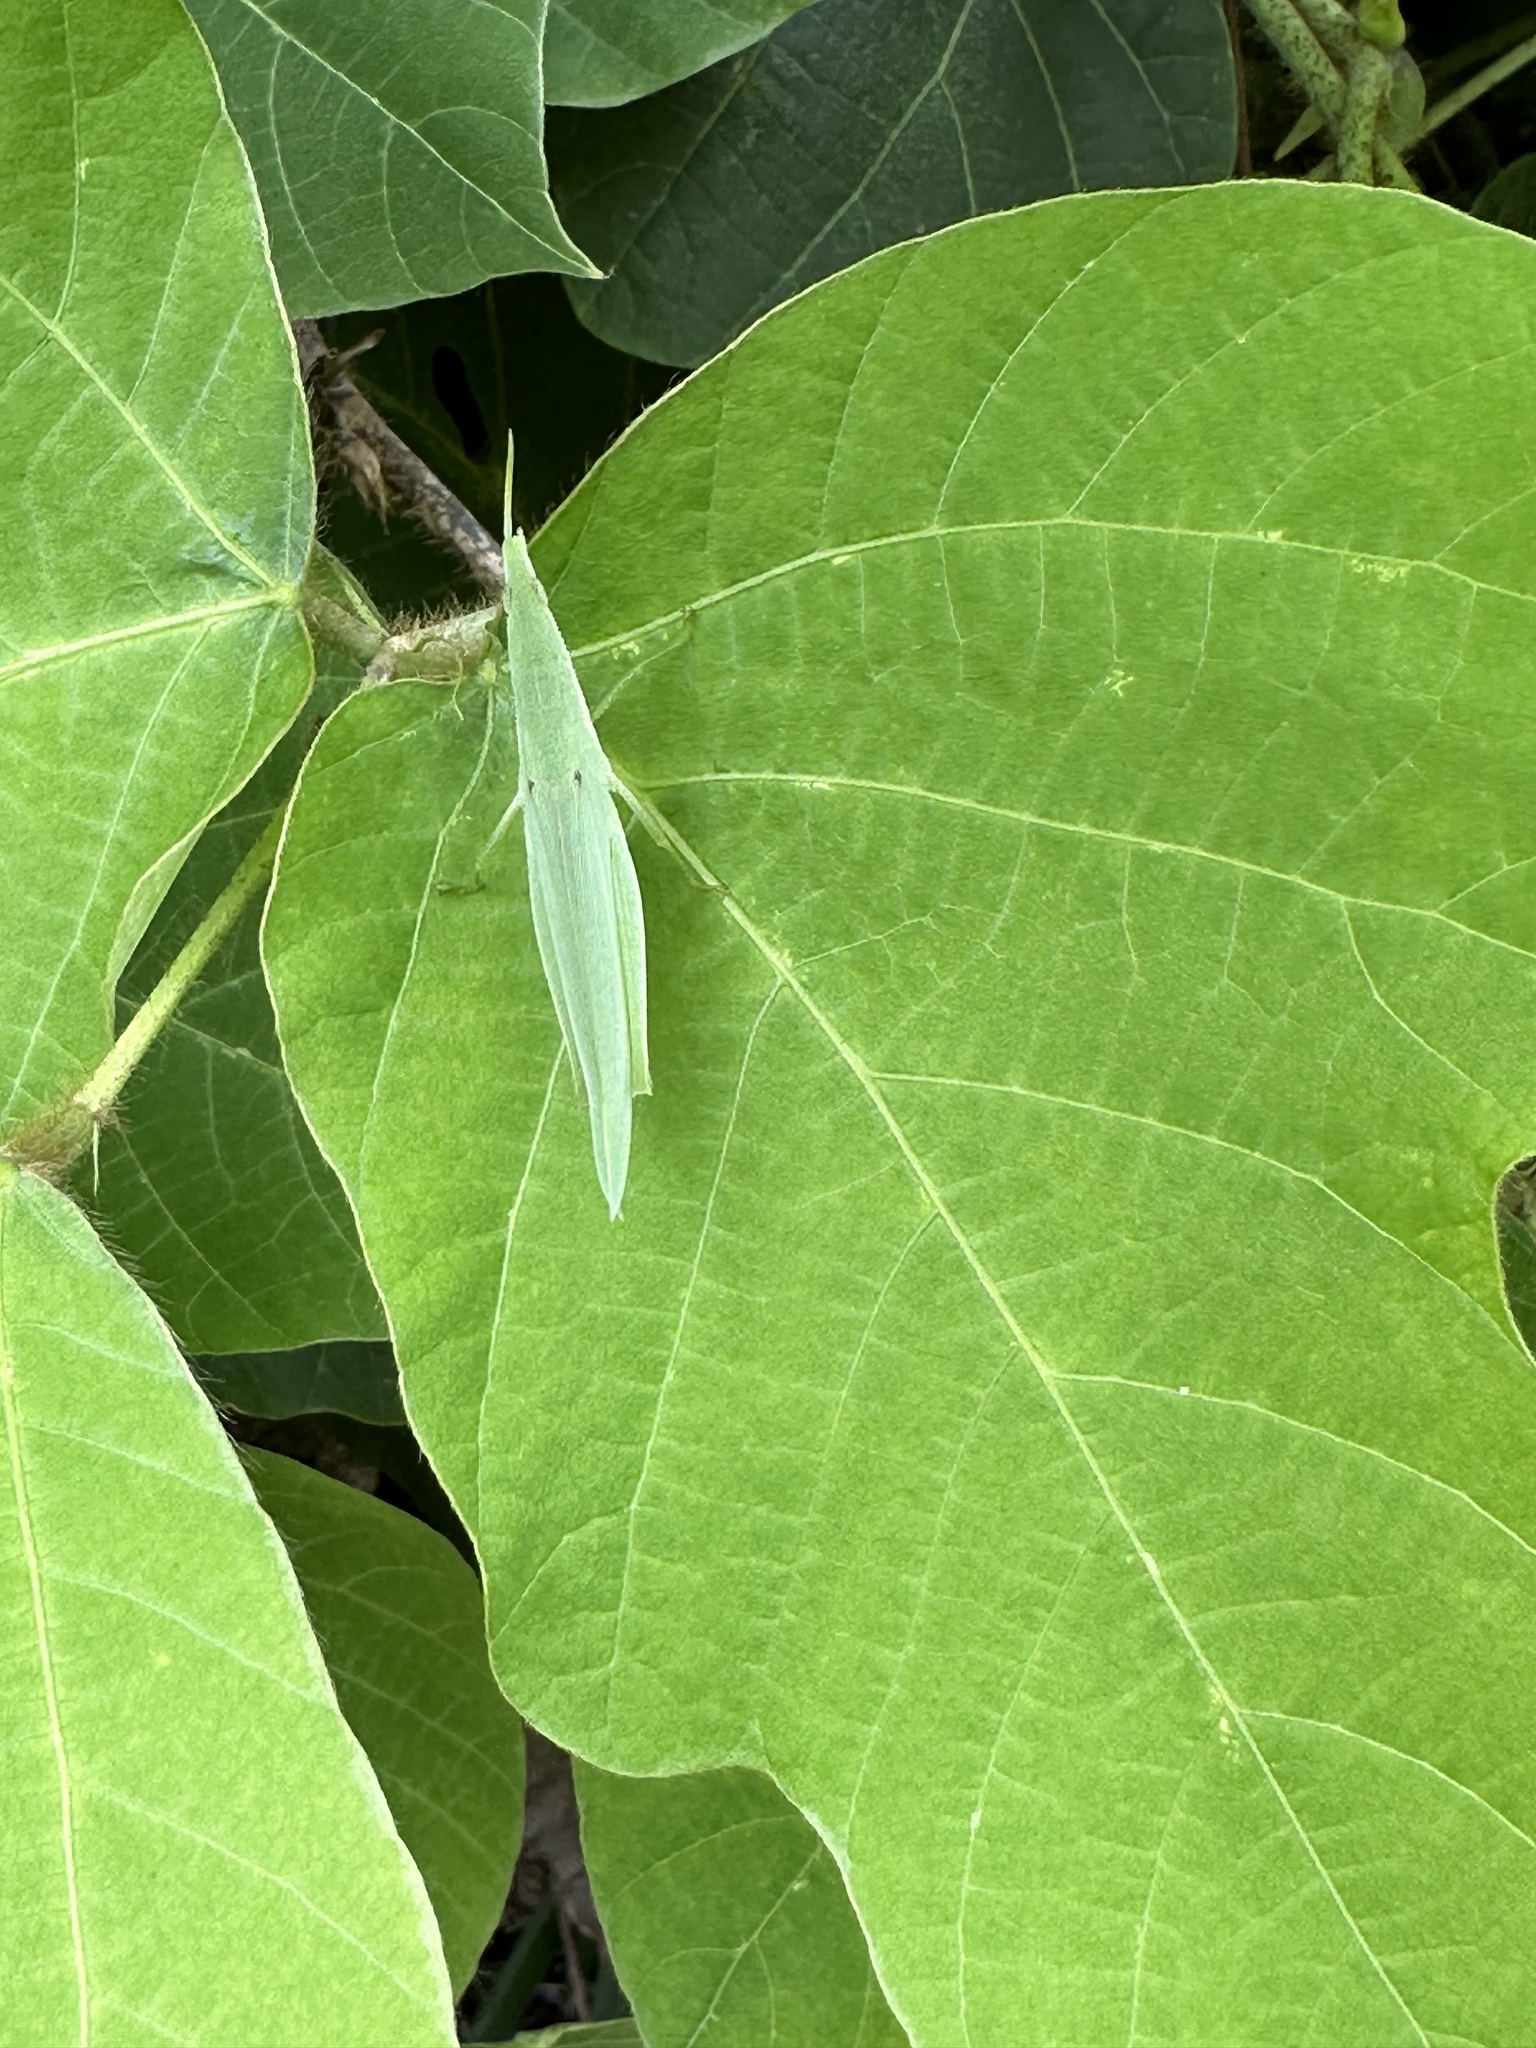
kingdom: Animalia
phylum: Arthropoda
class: Insecta
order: Orthoptera
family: Pyrgomorphidae
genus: Atractomorpha
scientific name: Atractomorpha lata
